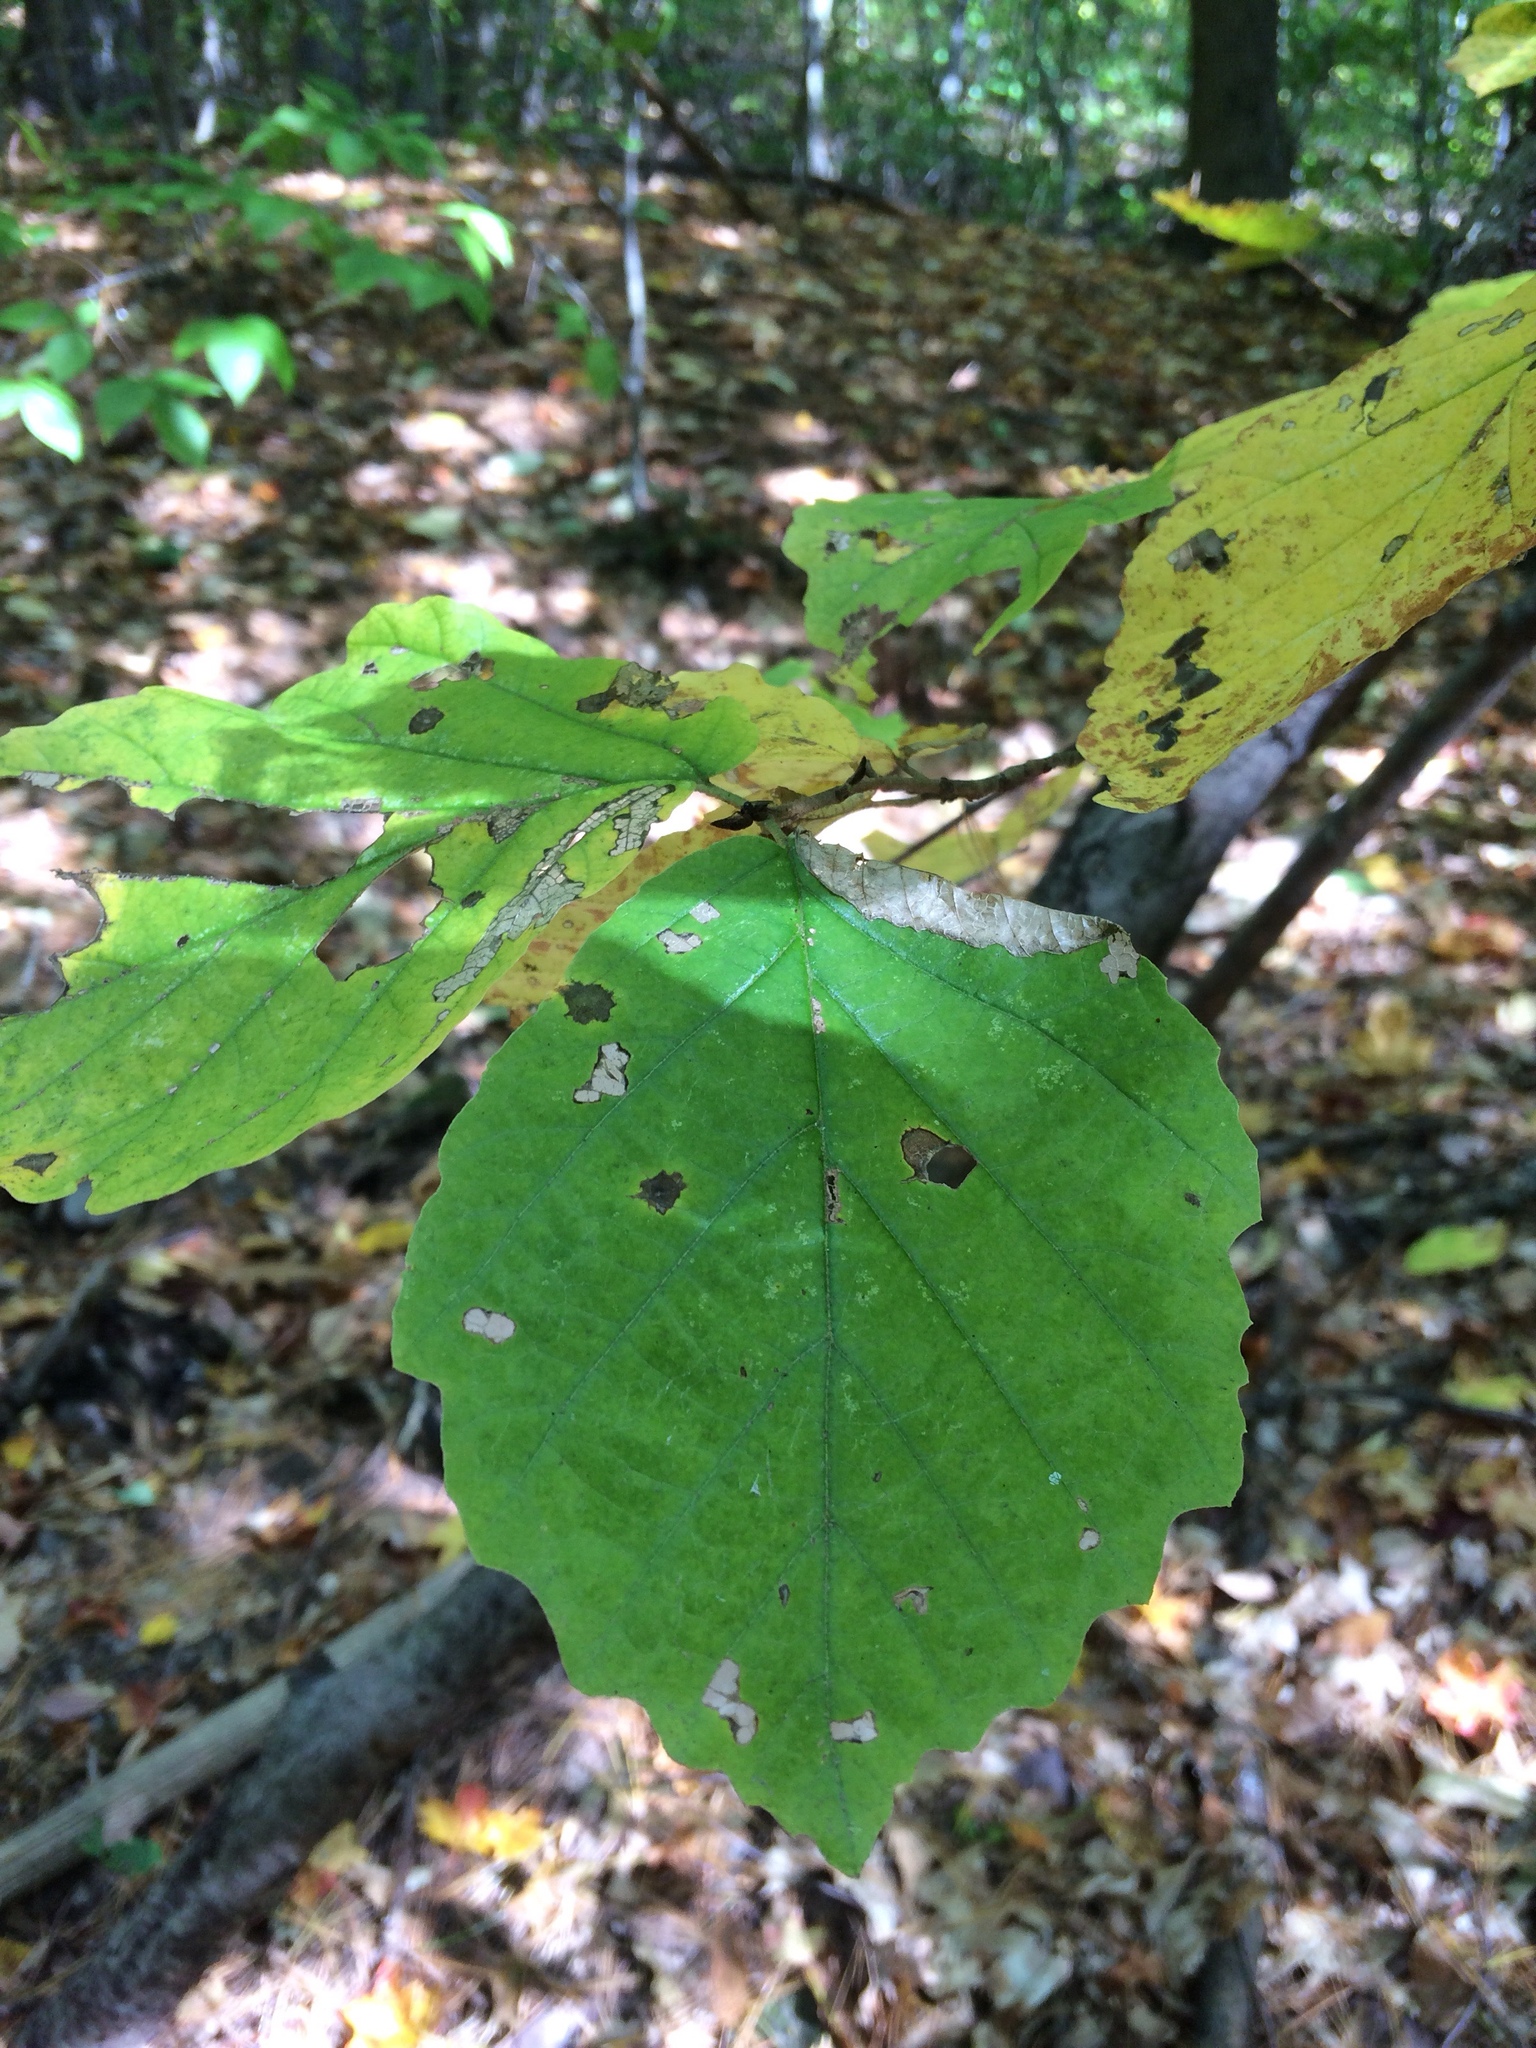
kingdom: Plantae
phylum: Tracheophyta
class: Magnoliopsida
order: Saxifragales
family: Hamamelidaceae
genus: Hamamelis
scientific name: Hamamelis virginiana
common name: Witch-hazel
